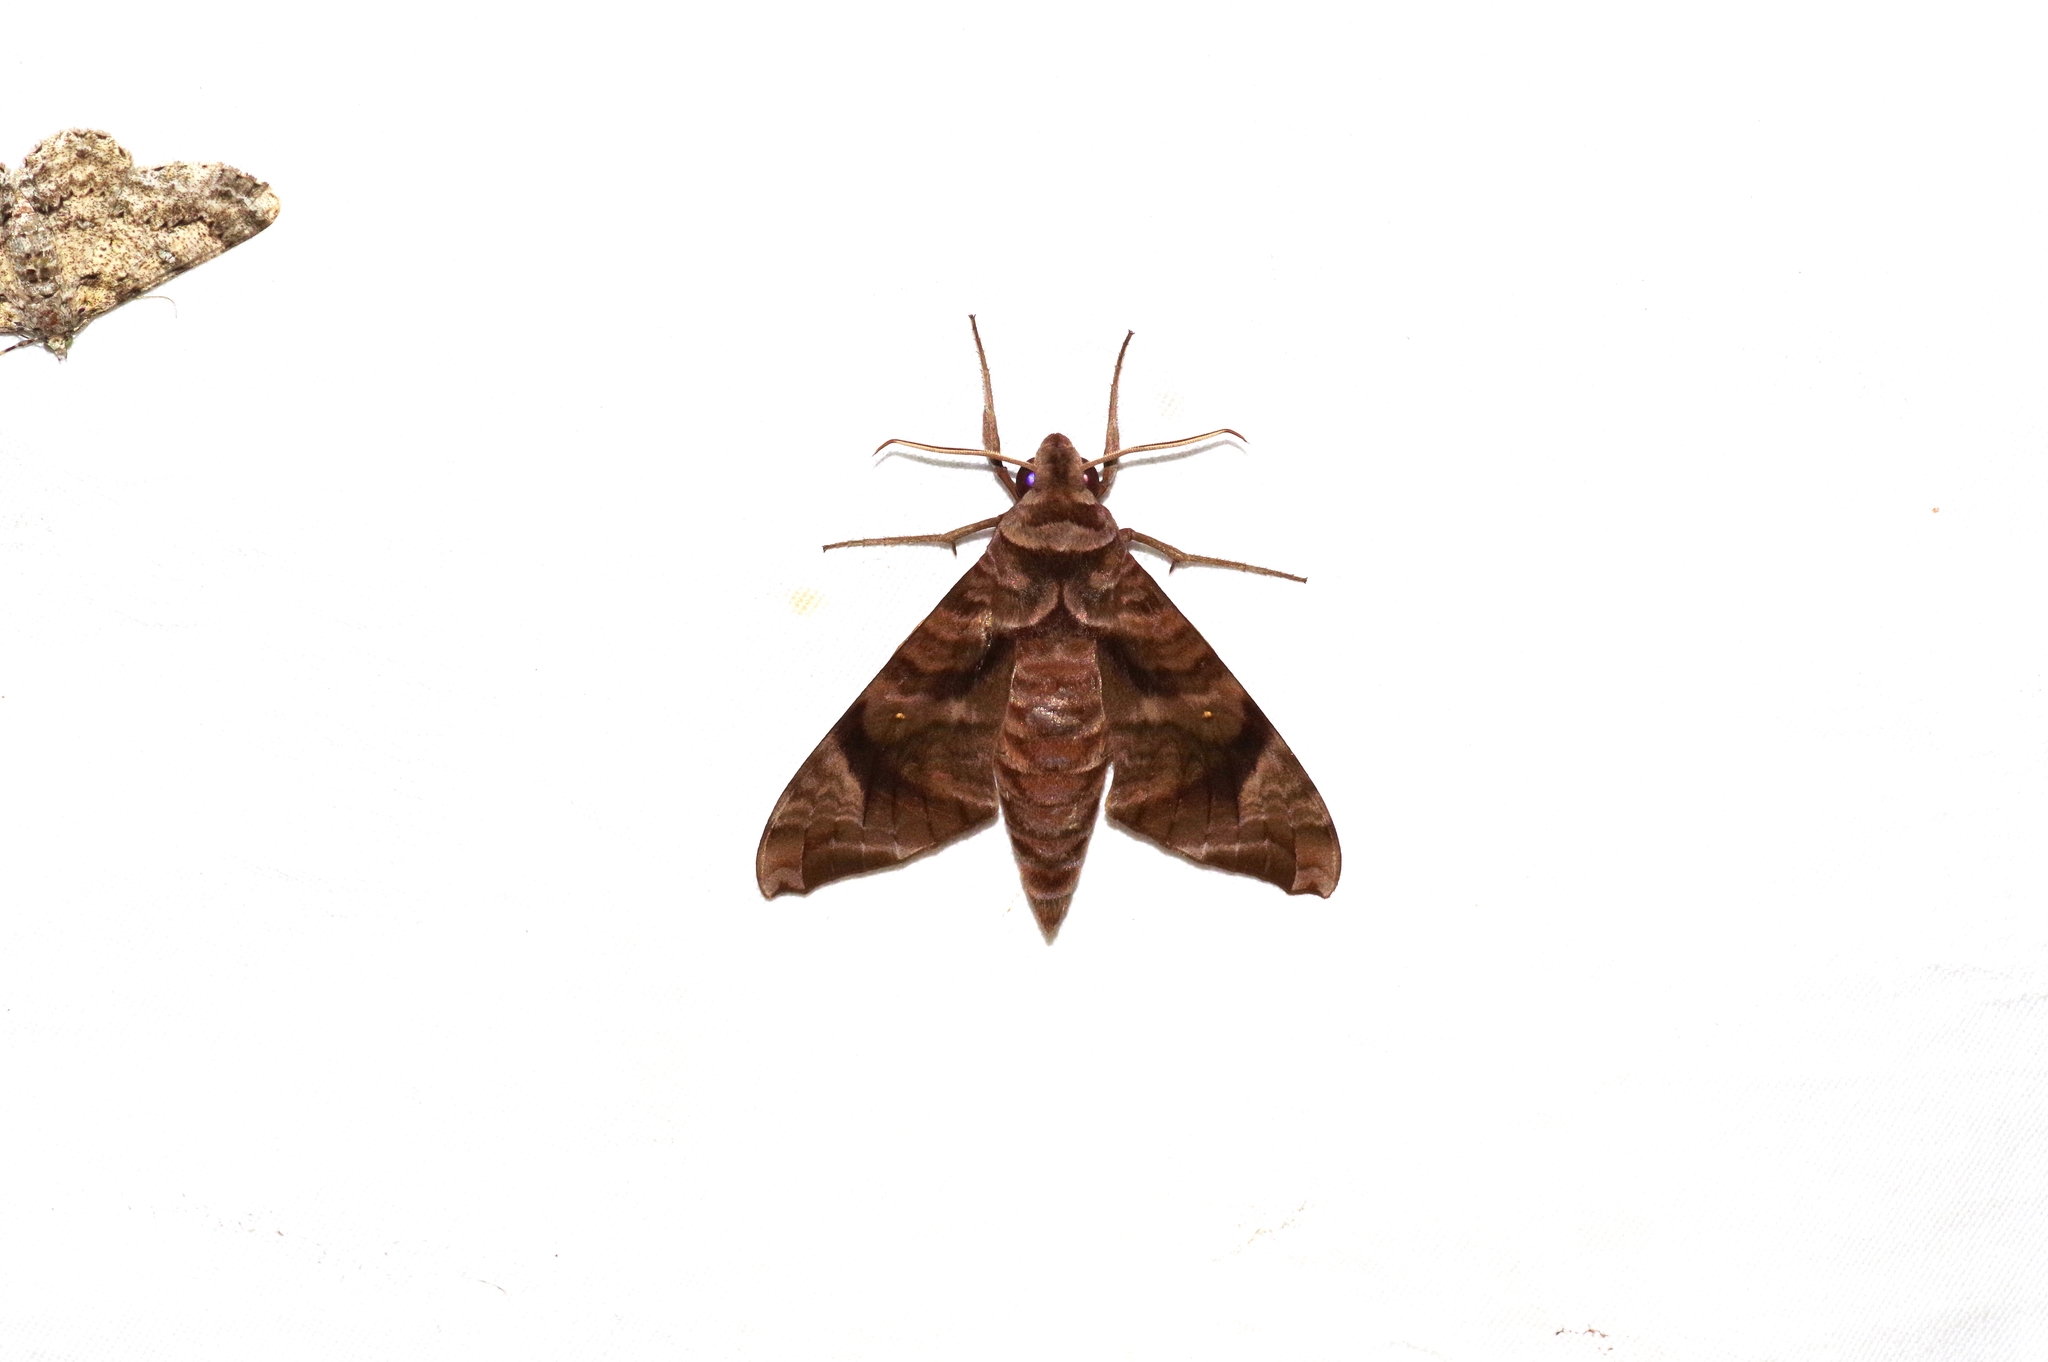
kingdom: Animalia
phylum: Arthropoda
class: Insecta
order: Lepidoptera
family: Sphingidae
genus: Acosmeryx
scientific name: Acosmeryx castanea
